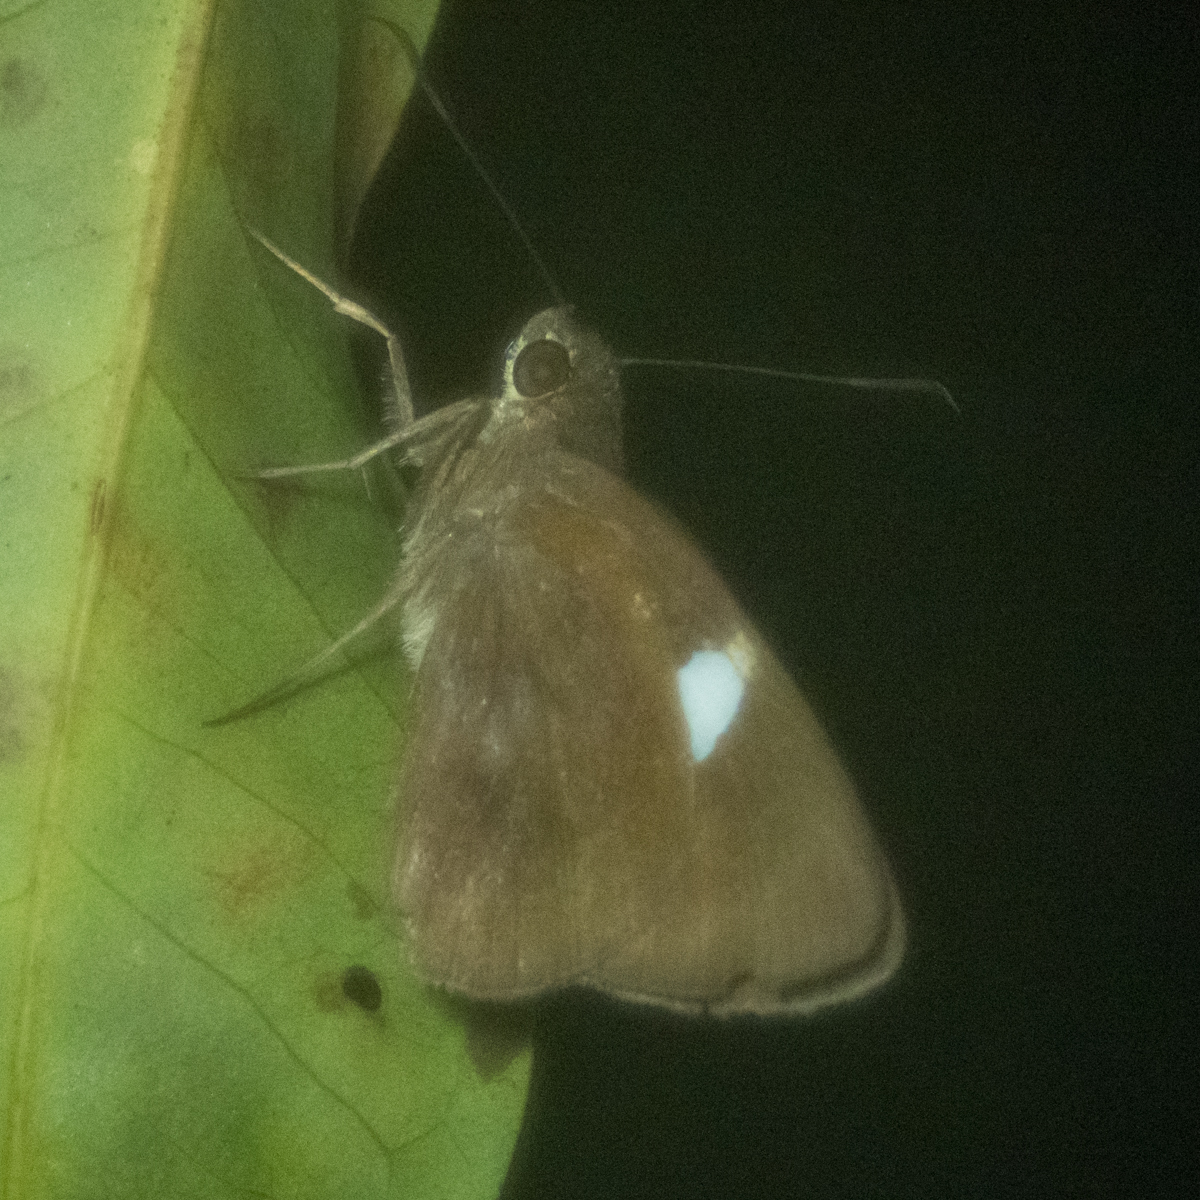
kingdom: Animalia
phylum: Arthropoda
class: Insecta
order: Lepidoptera
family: Hesperiidae
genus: Notocrypta
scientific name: Notocrypta paralysos
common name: Common banded demon
